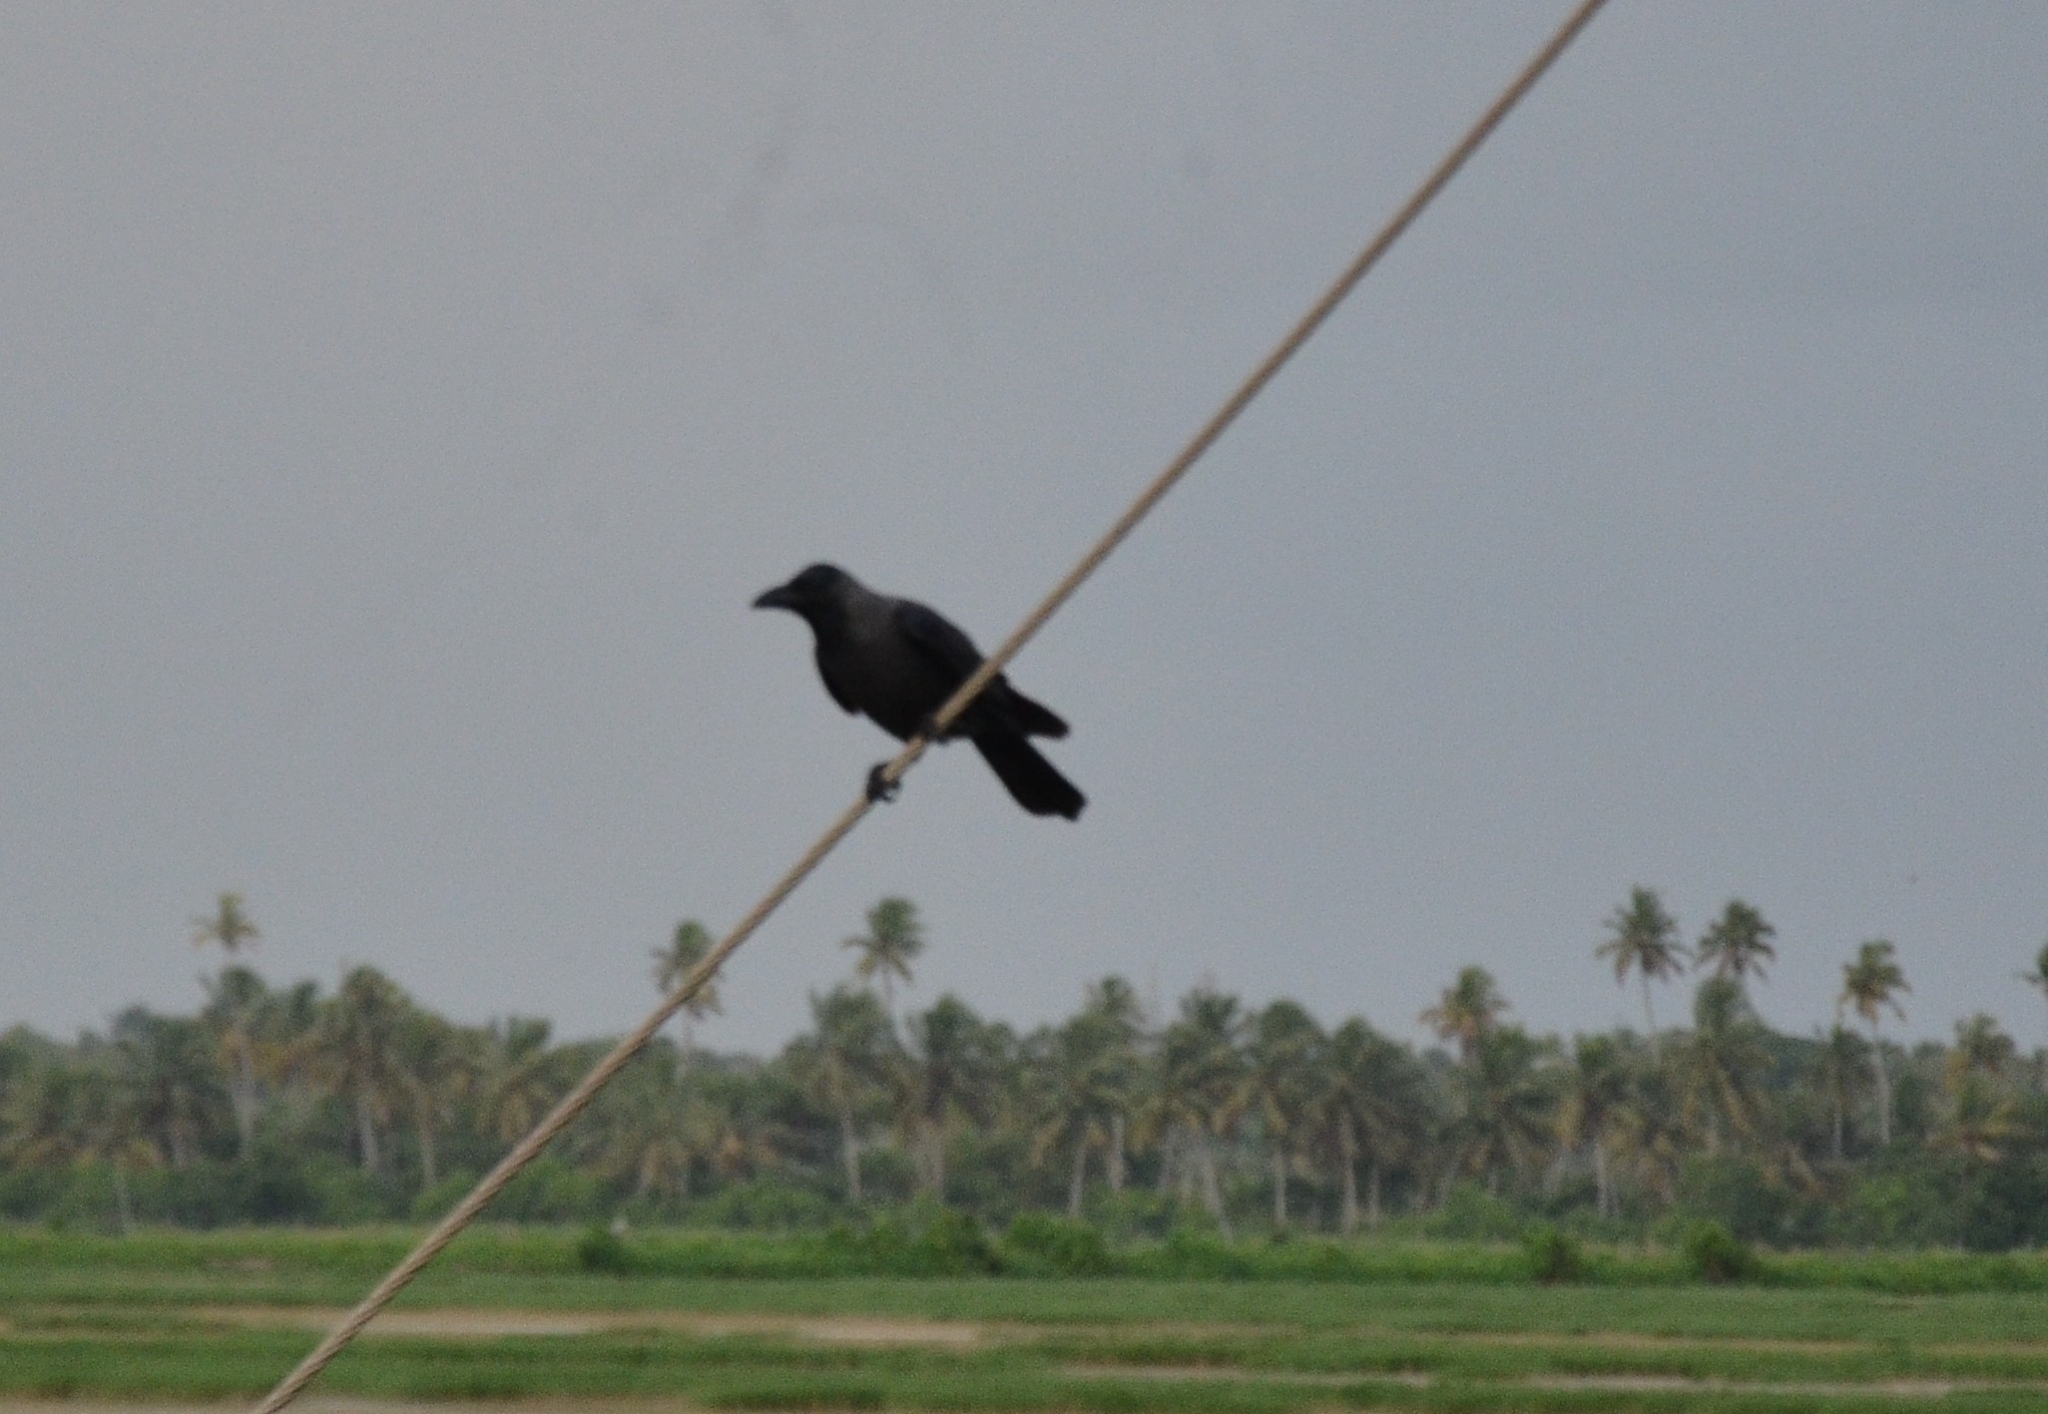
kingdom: Animalia
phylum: Chordata
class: Aves
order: Passeriformes
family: Corvidae
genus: Corvus
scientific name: Corvus splendens
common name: House crow
